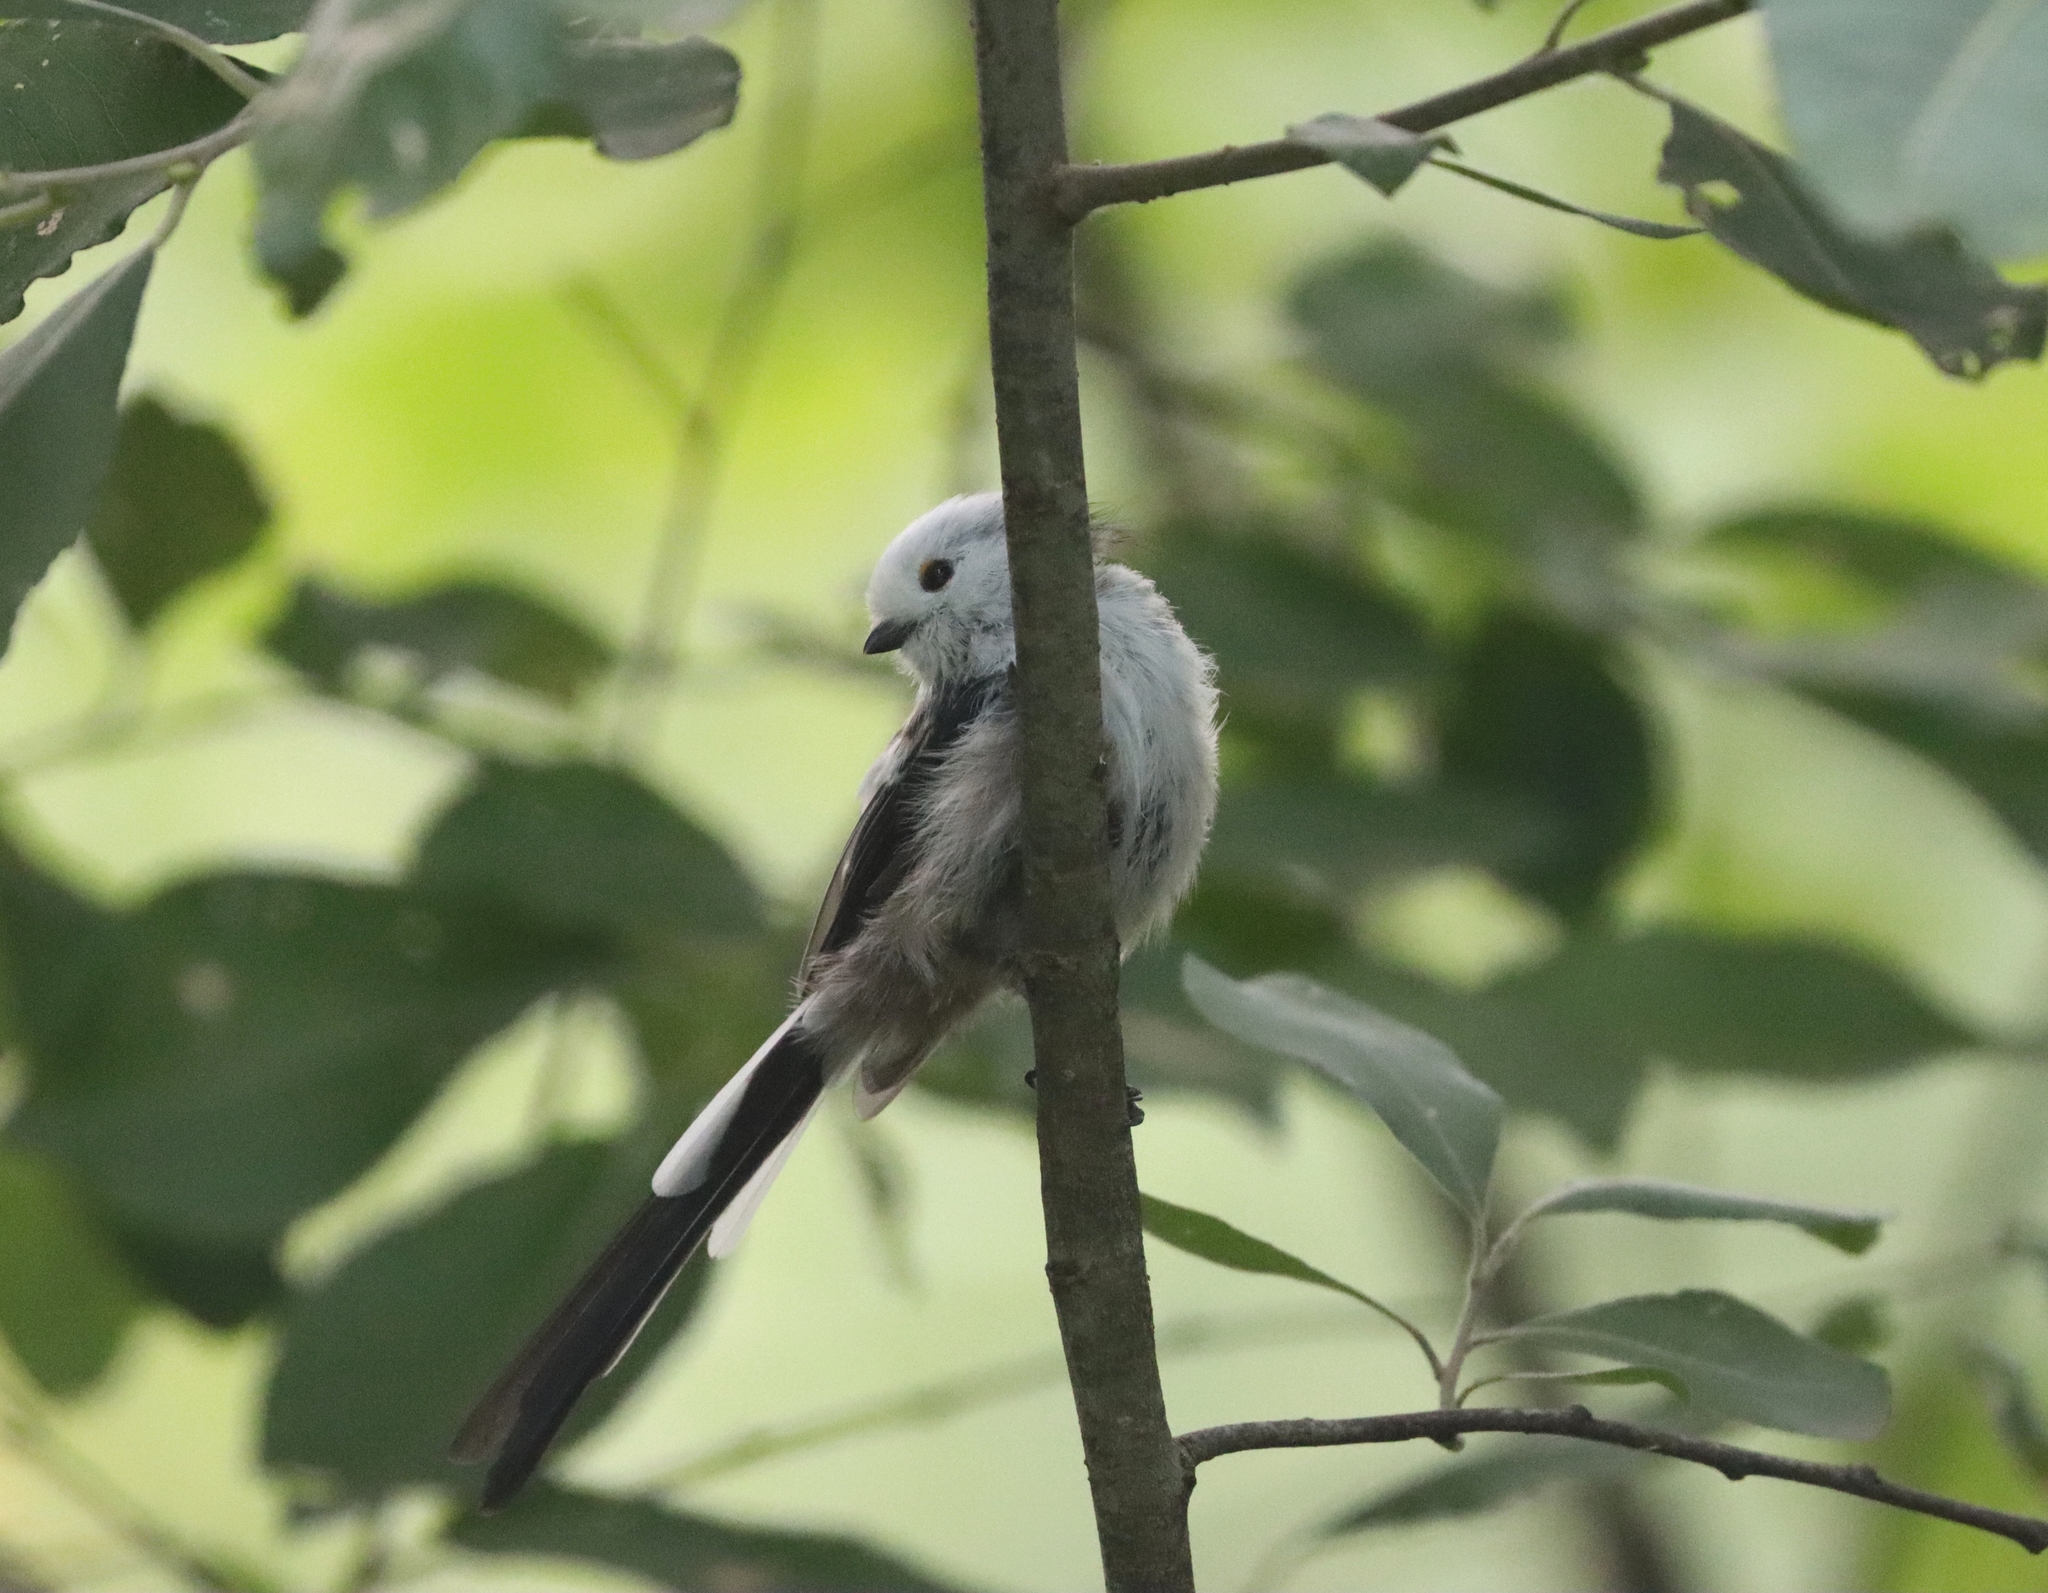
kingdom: Animalia
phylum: Chordata
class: Aves
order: Passeriformes
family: Aegithalidae
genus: Aegithalos
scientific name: Aegithalos caudatus
